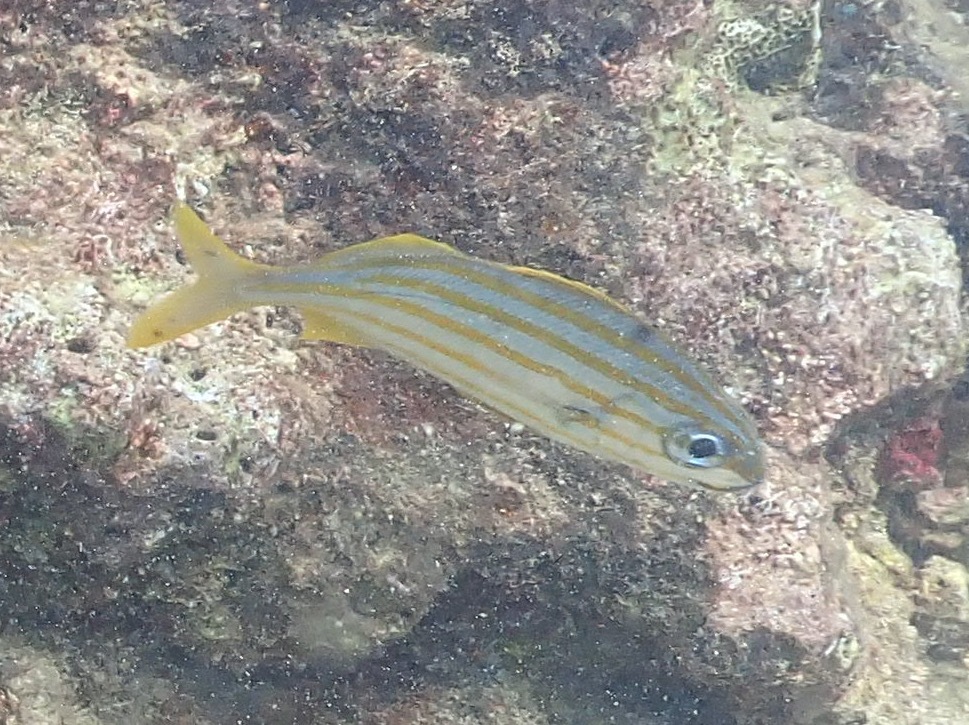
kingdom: Animalia
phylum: Chordata
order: Perciformes
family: Haemulidae
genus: Haemulon
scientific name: Haemulon chrysargyreum
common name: Smallmouth grunt
